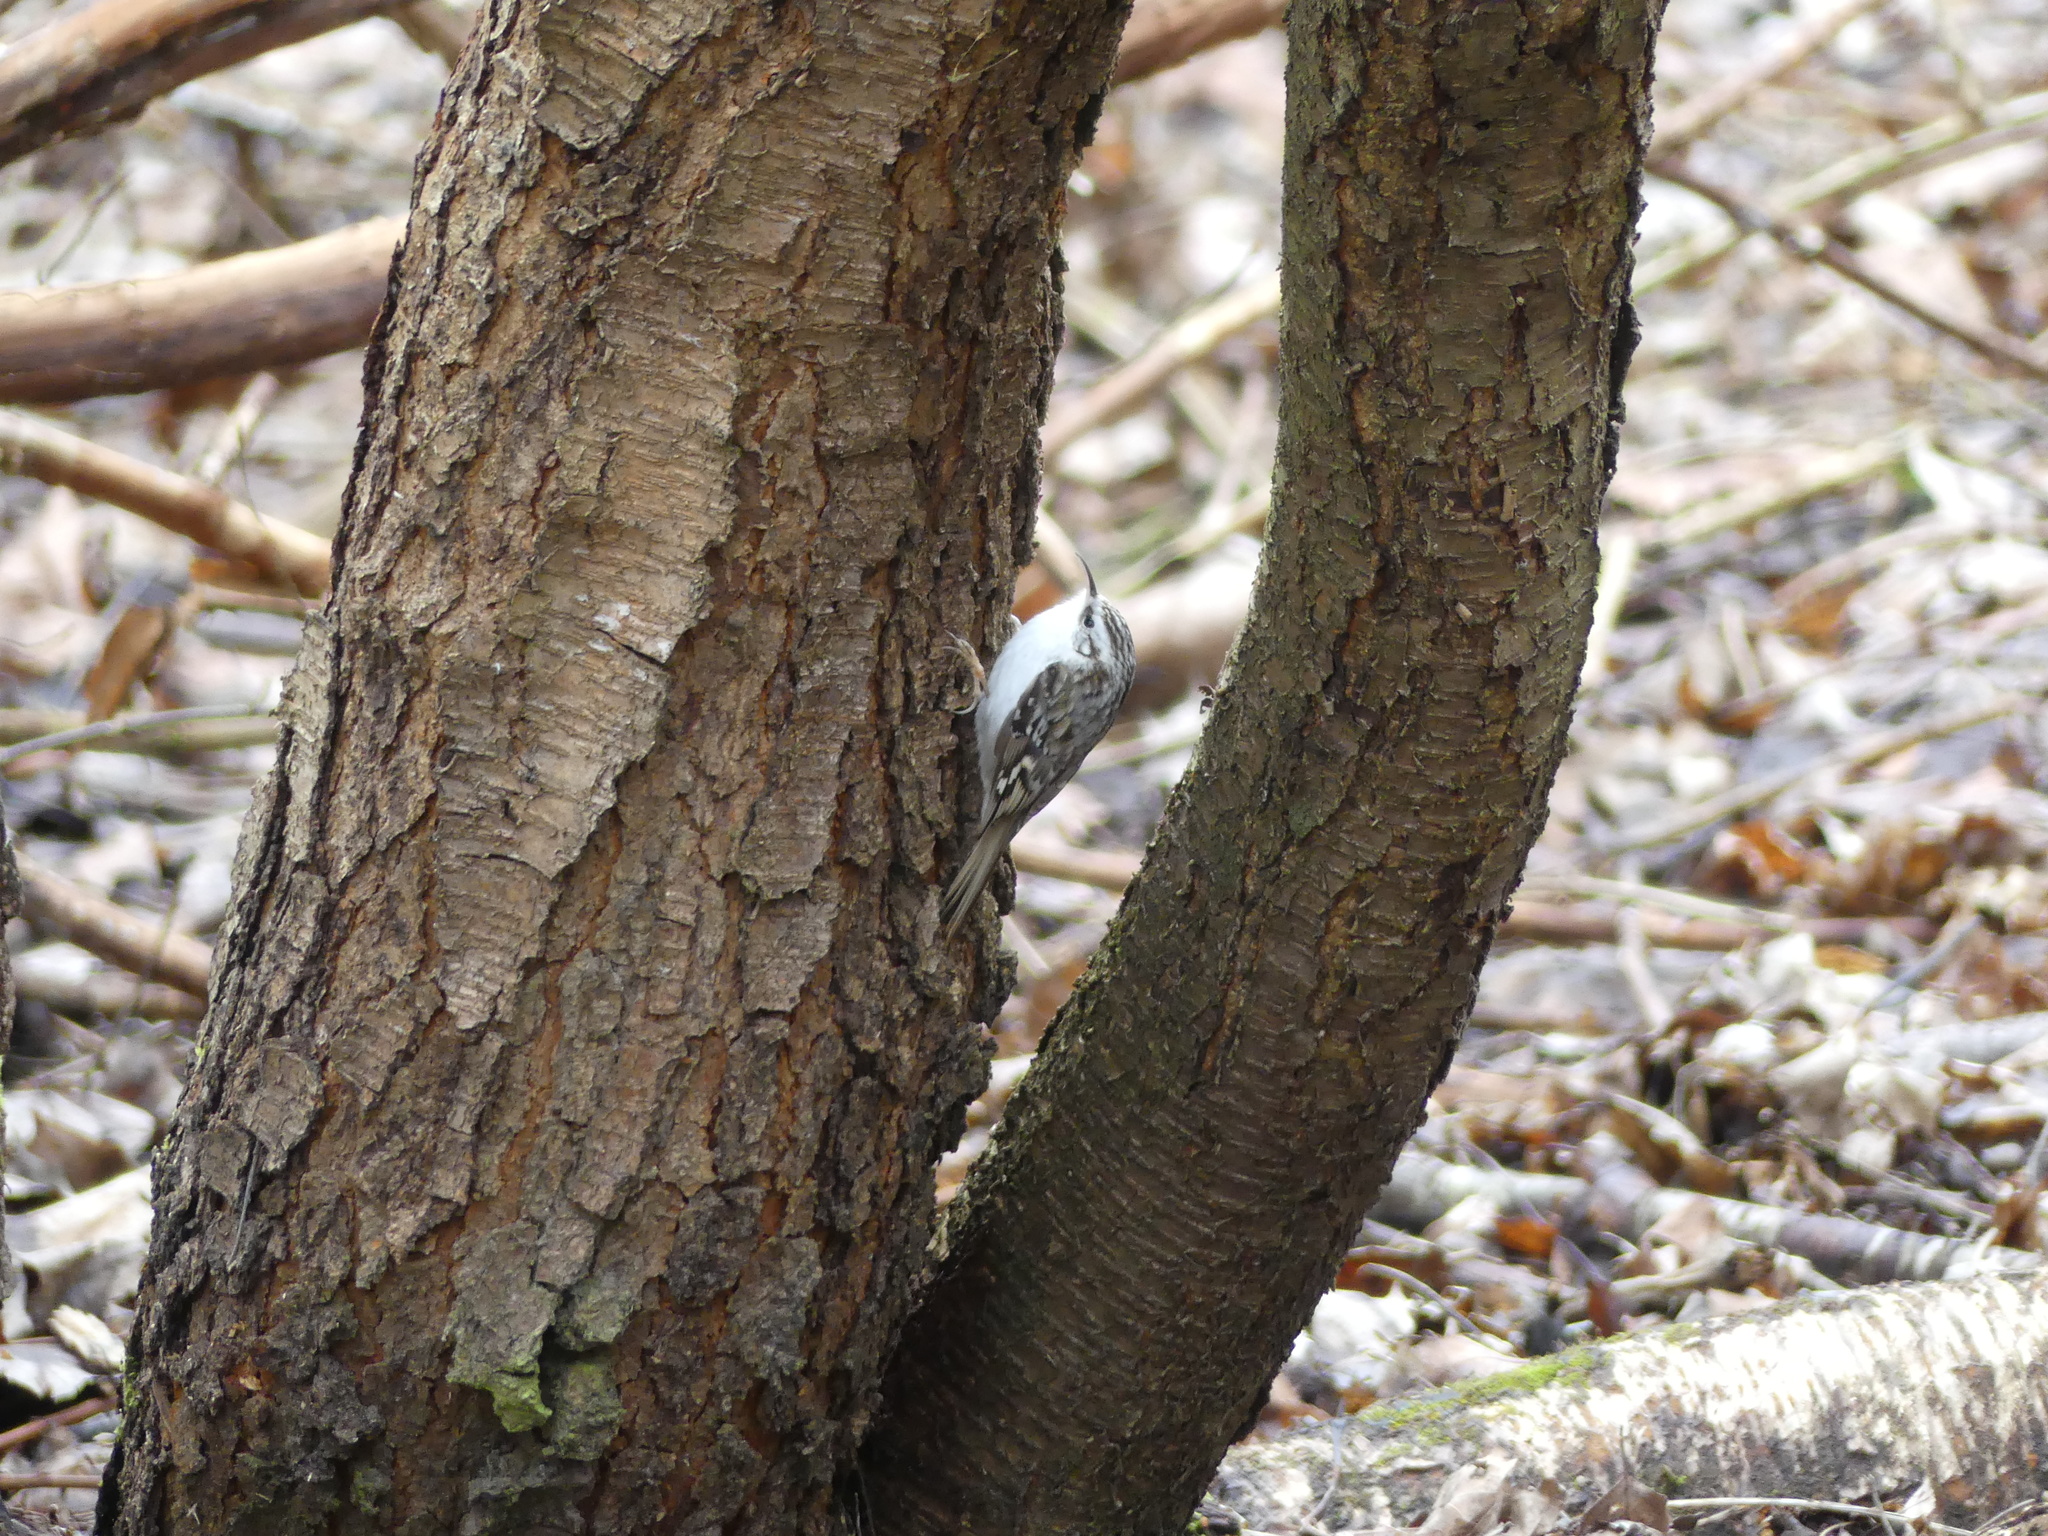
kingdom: Animalia
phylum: Chordata
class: Aves
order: Passeriformes
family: Certhiidae
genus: Certhia
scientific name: Certhia familiaris
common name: Eurasian treecreeper
